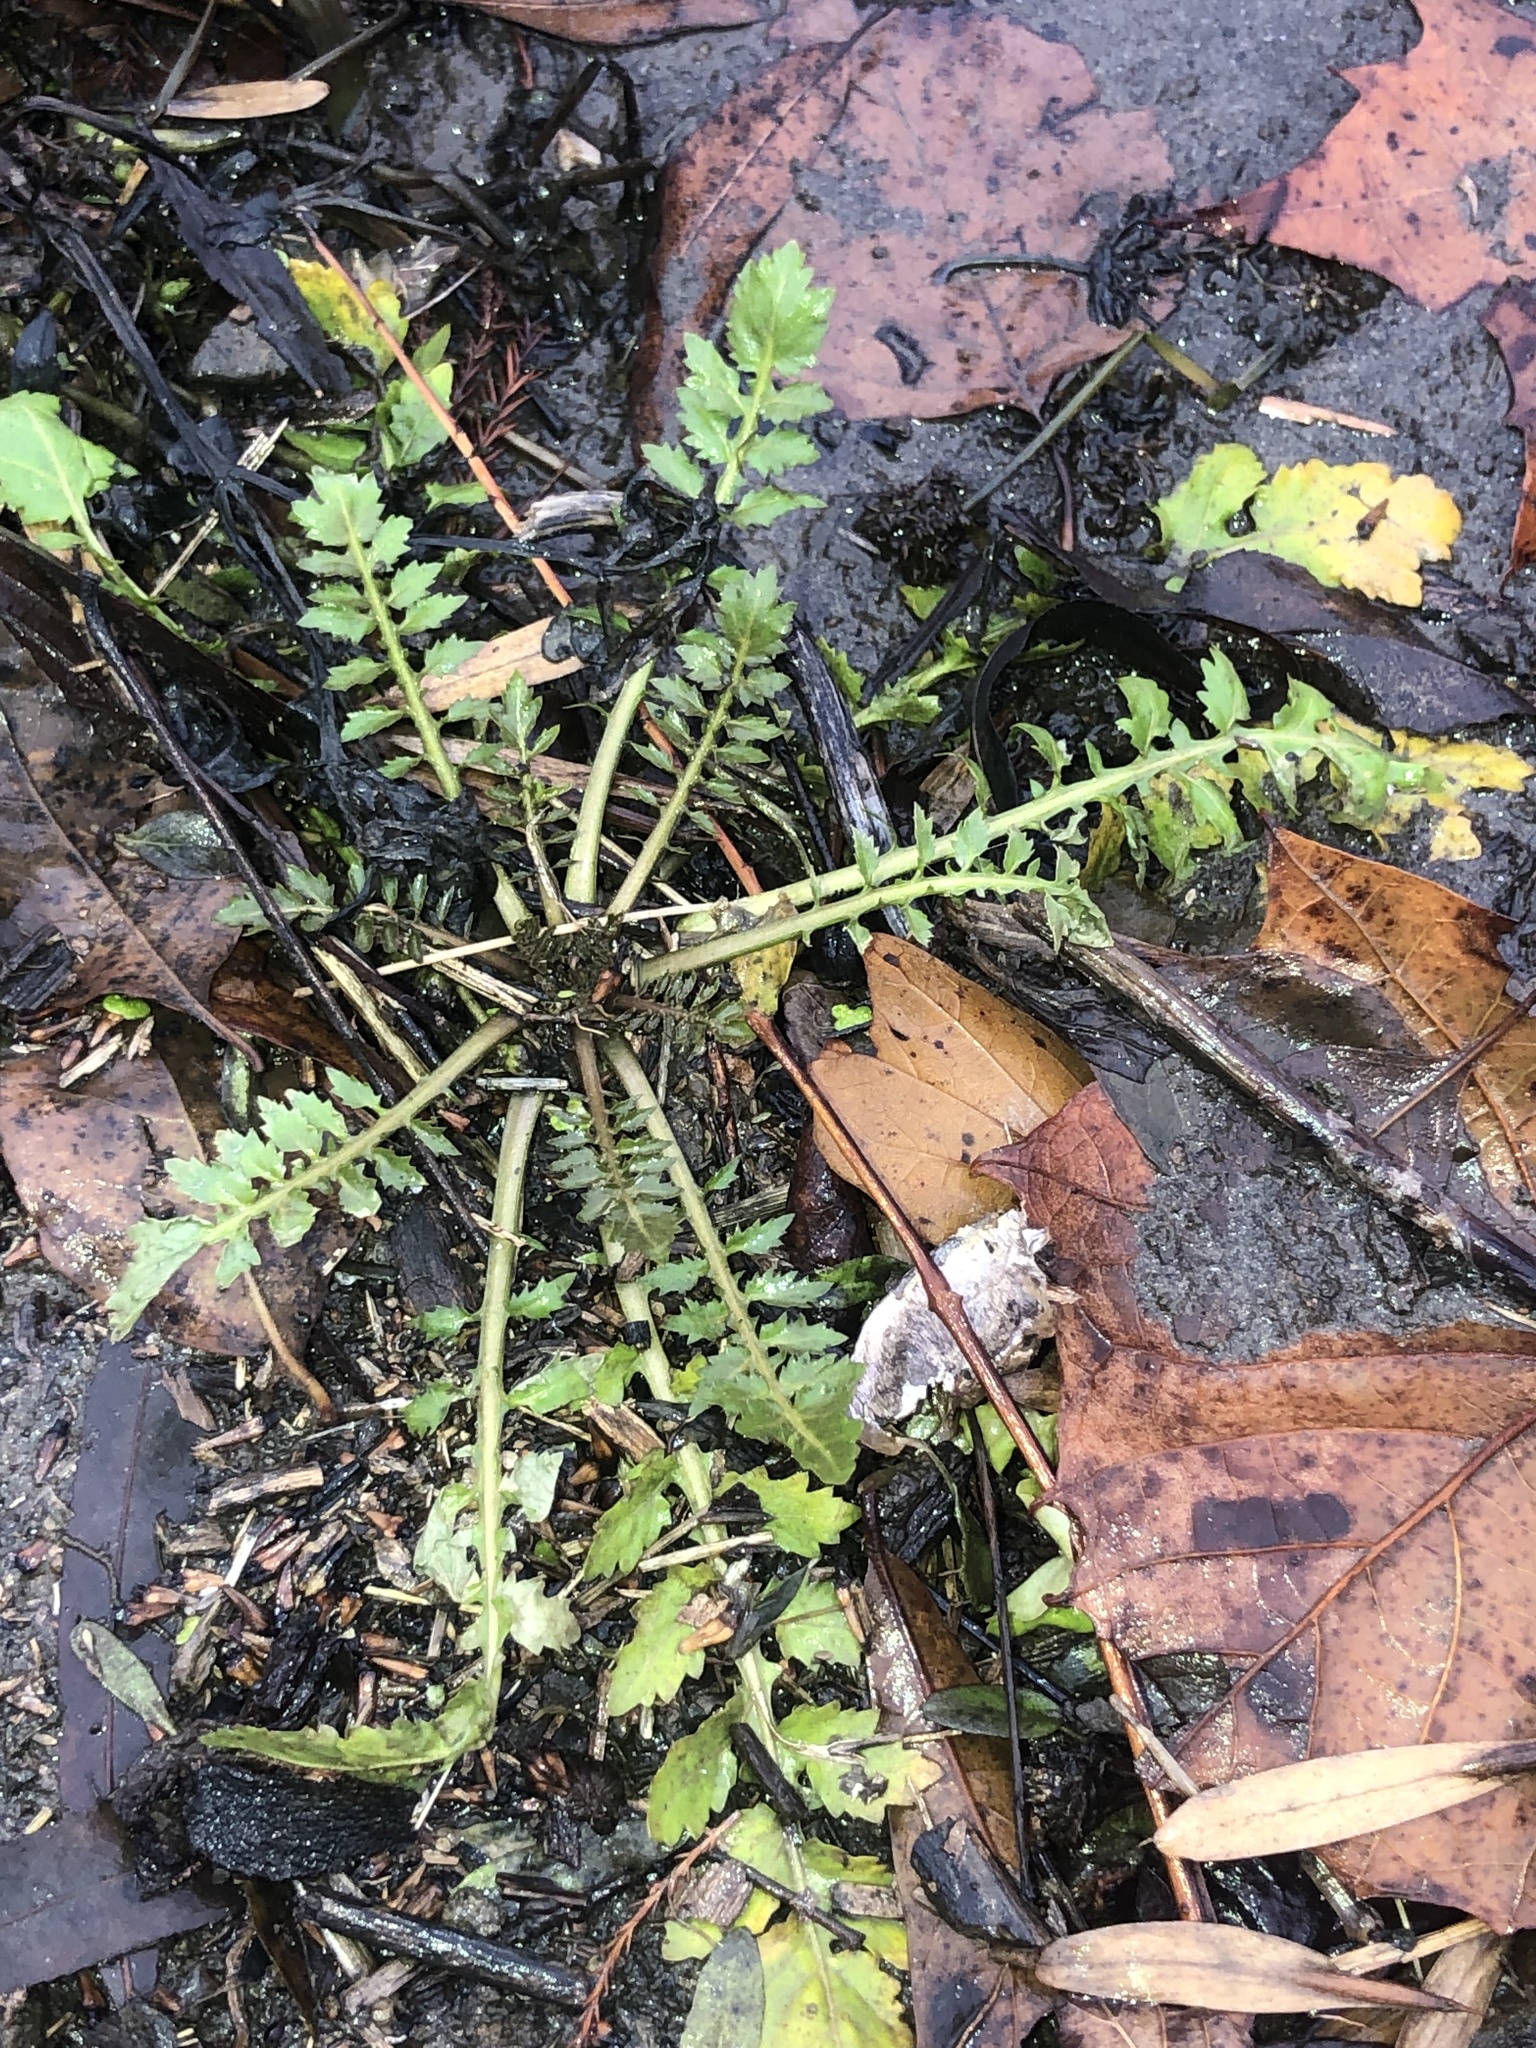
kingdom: Plantae
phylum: Tracheophyta
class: Magnoliopsida
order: Brassicales
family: Brassicaceae
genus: Rorippa
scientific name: Rorippa palustris
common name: Marsh yellow-cress
